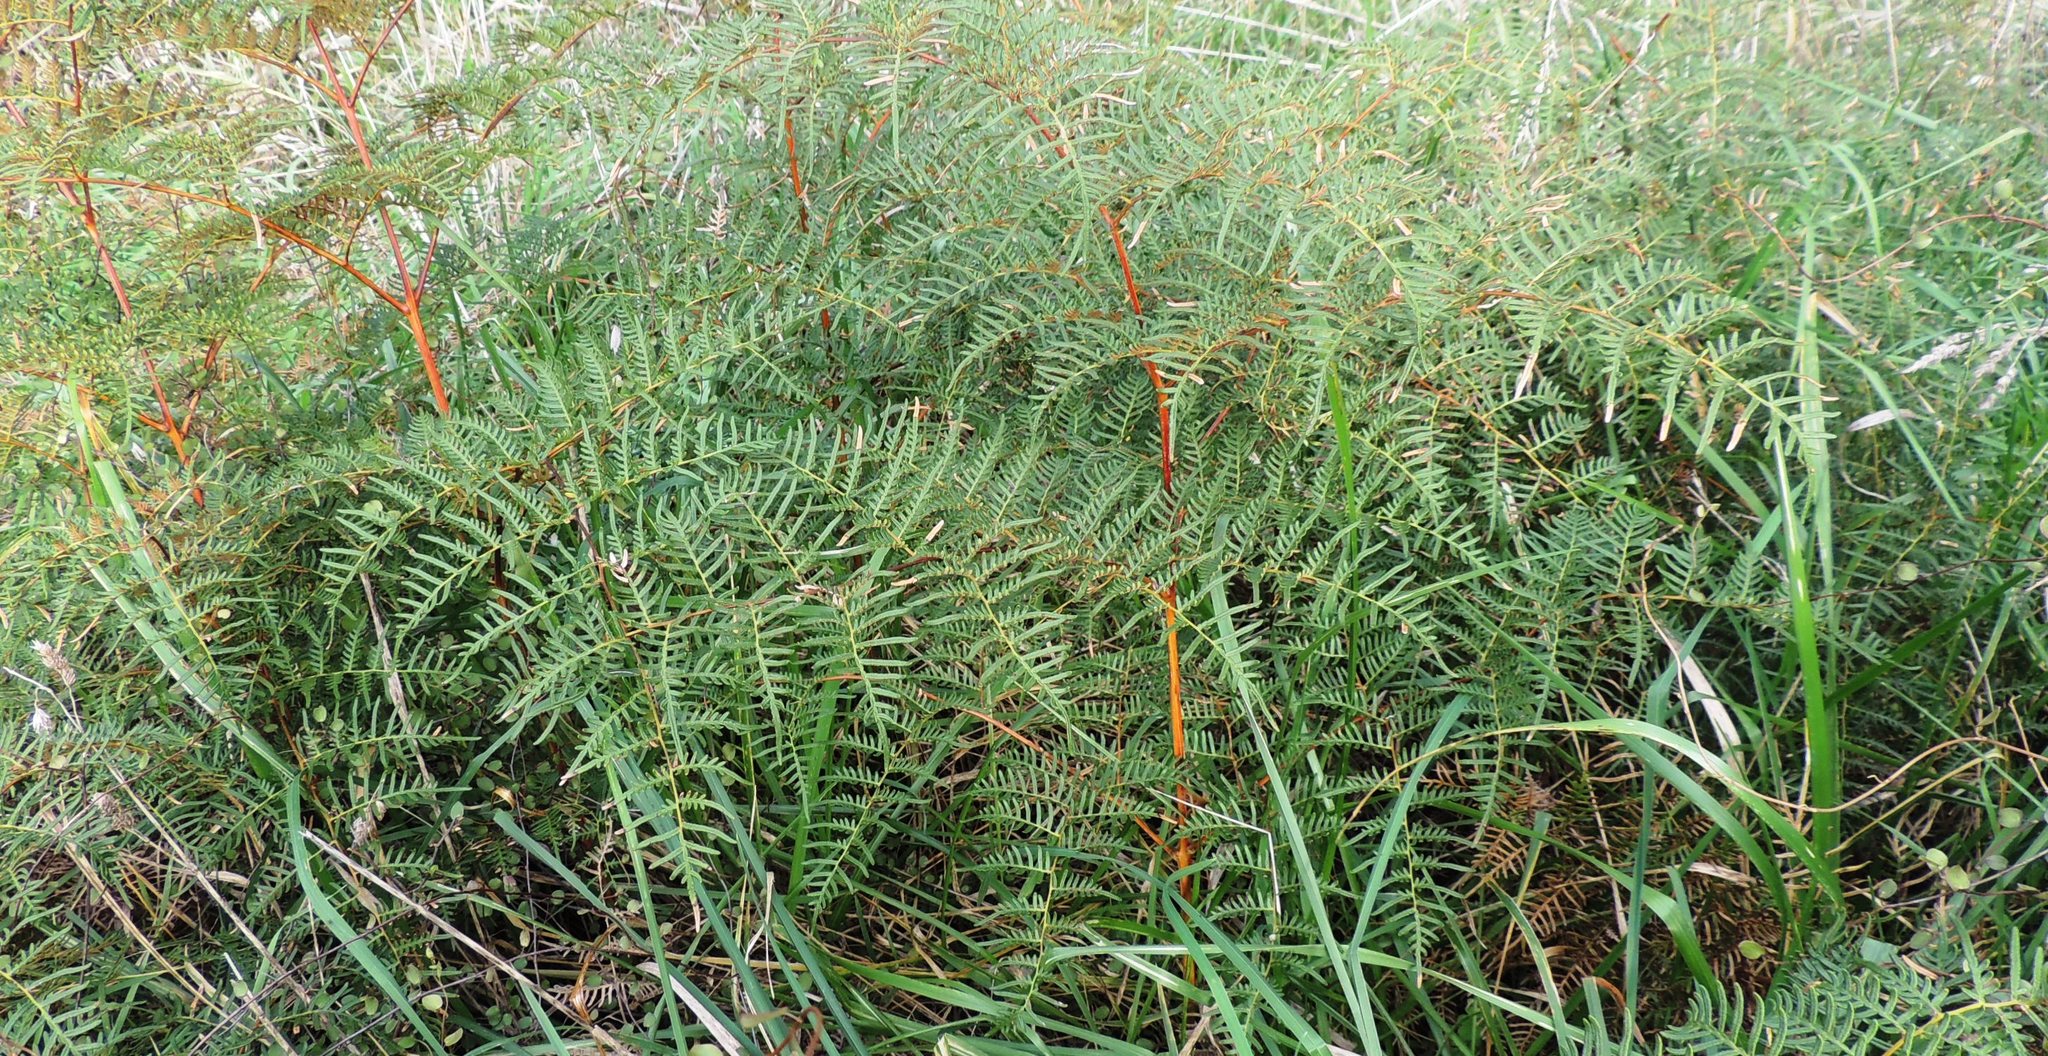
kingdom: Plantae
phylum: Tracheophyta
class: Polypodiopsida
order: Polypodiales
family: Dennstaedtiaceae
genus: Pteridium
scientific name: Pteridium esculentum
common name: Bracken fern
